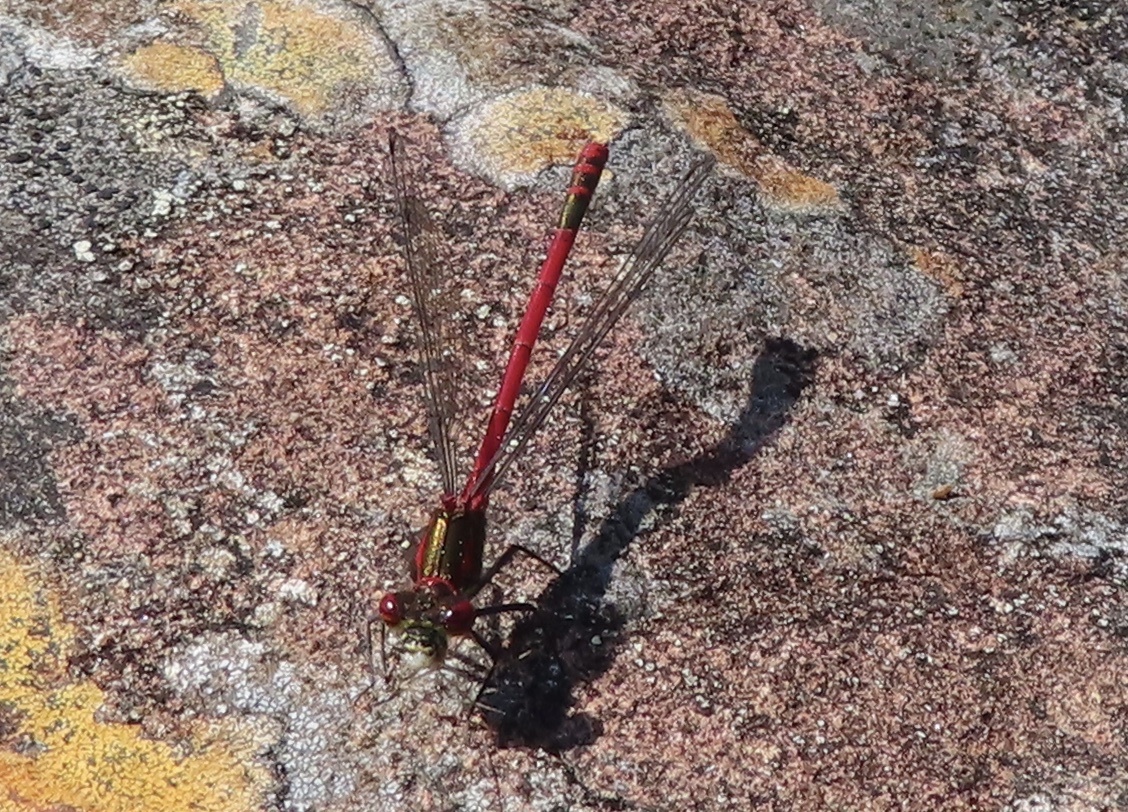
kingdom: Animalia
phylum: Arthropoda
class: Insecta
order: Odonata
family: Coenagrionidae
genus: Pyrrhosoma
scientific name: Pyrrhosoma nymphula
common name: Large red damsel
